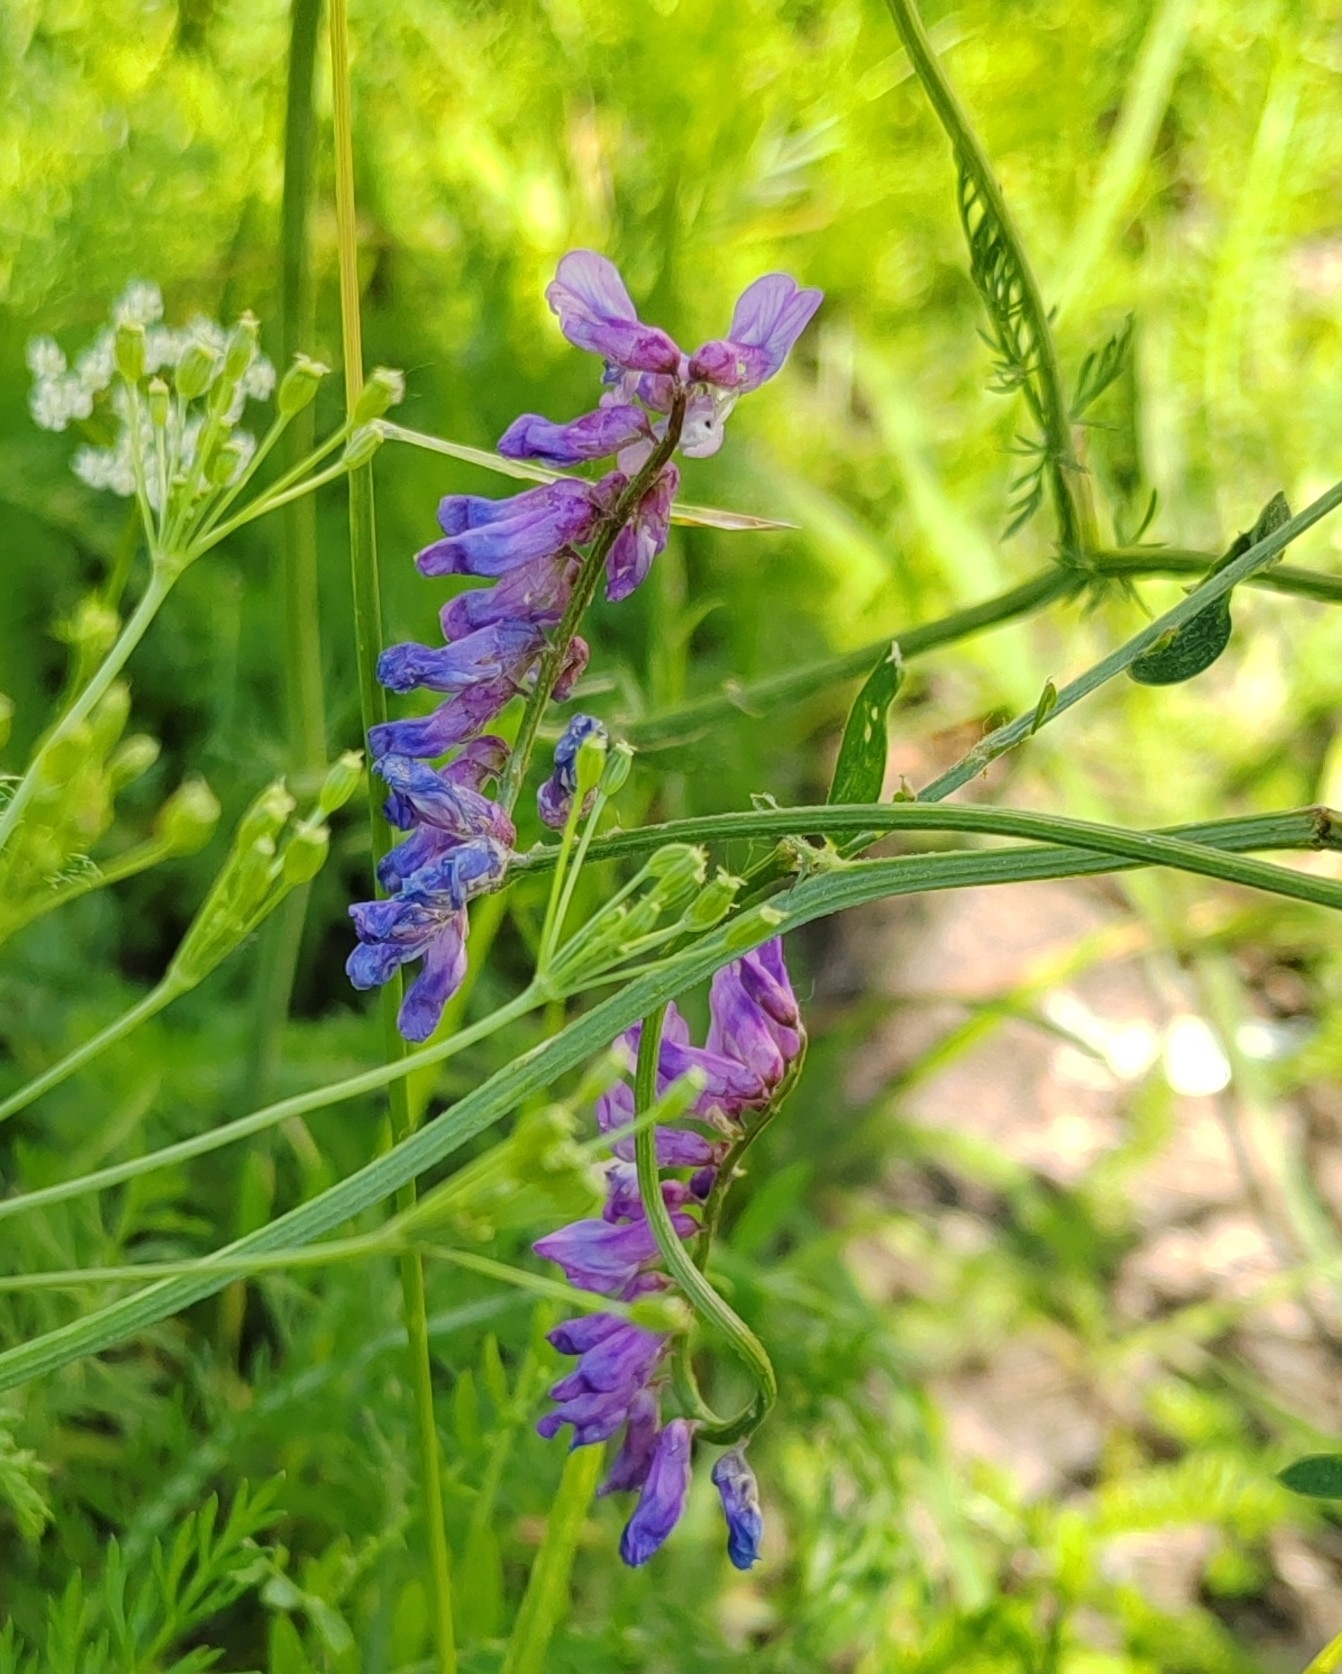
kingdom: Plantae
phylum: Tracheophyta
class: Magnoliopsida
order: Fabales
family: Fabaceae
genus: Vicia
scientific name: Vicia cracca
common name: Bird vetch
